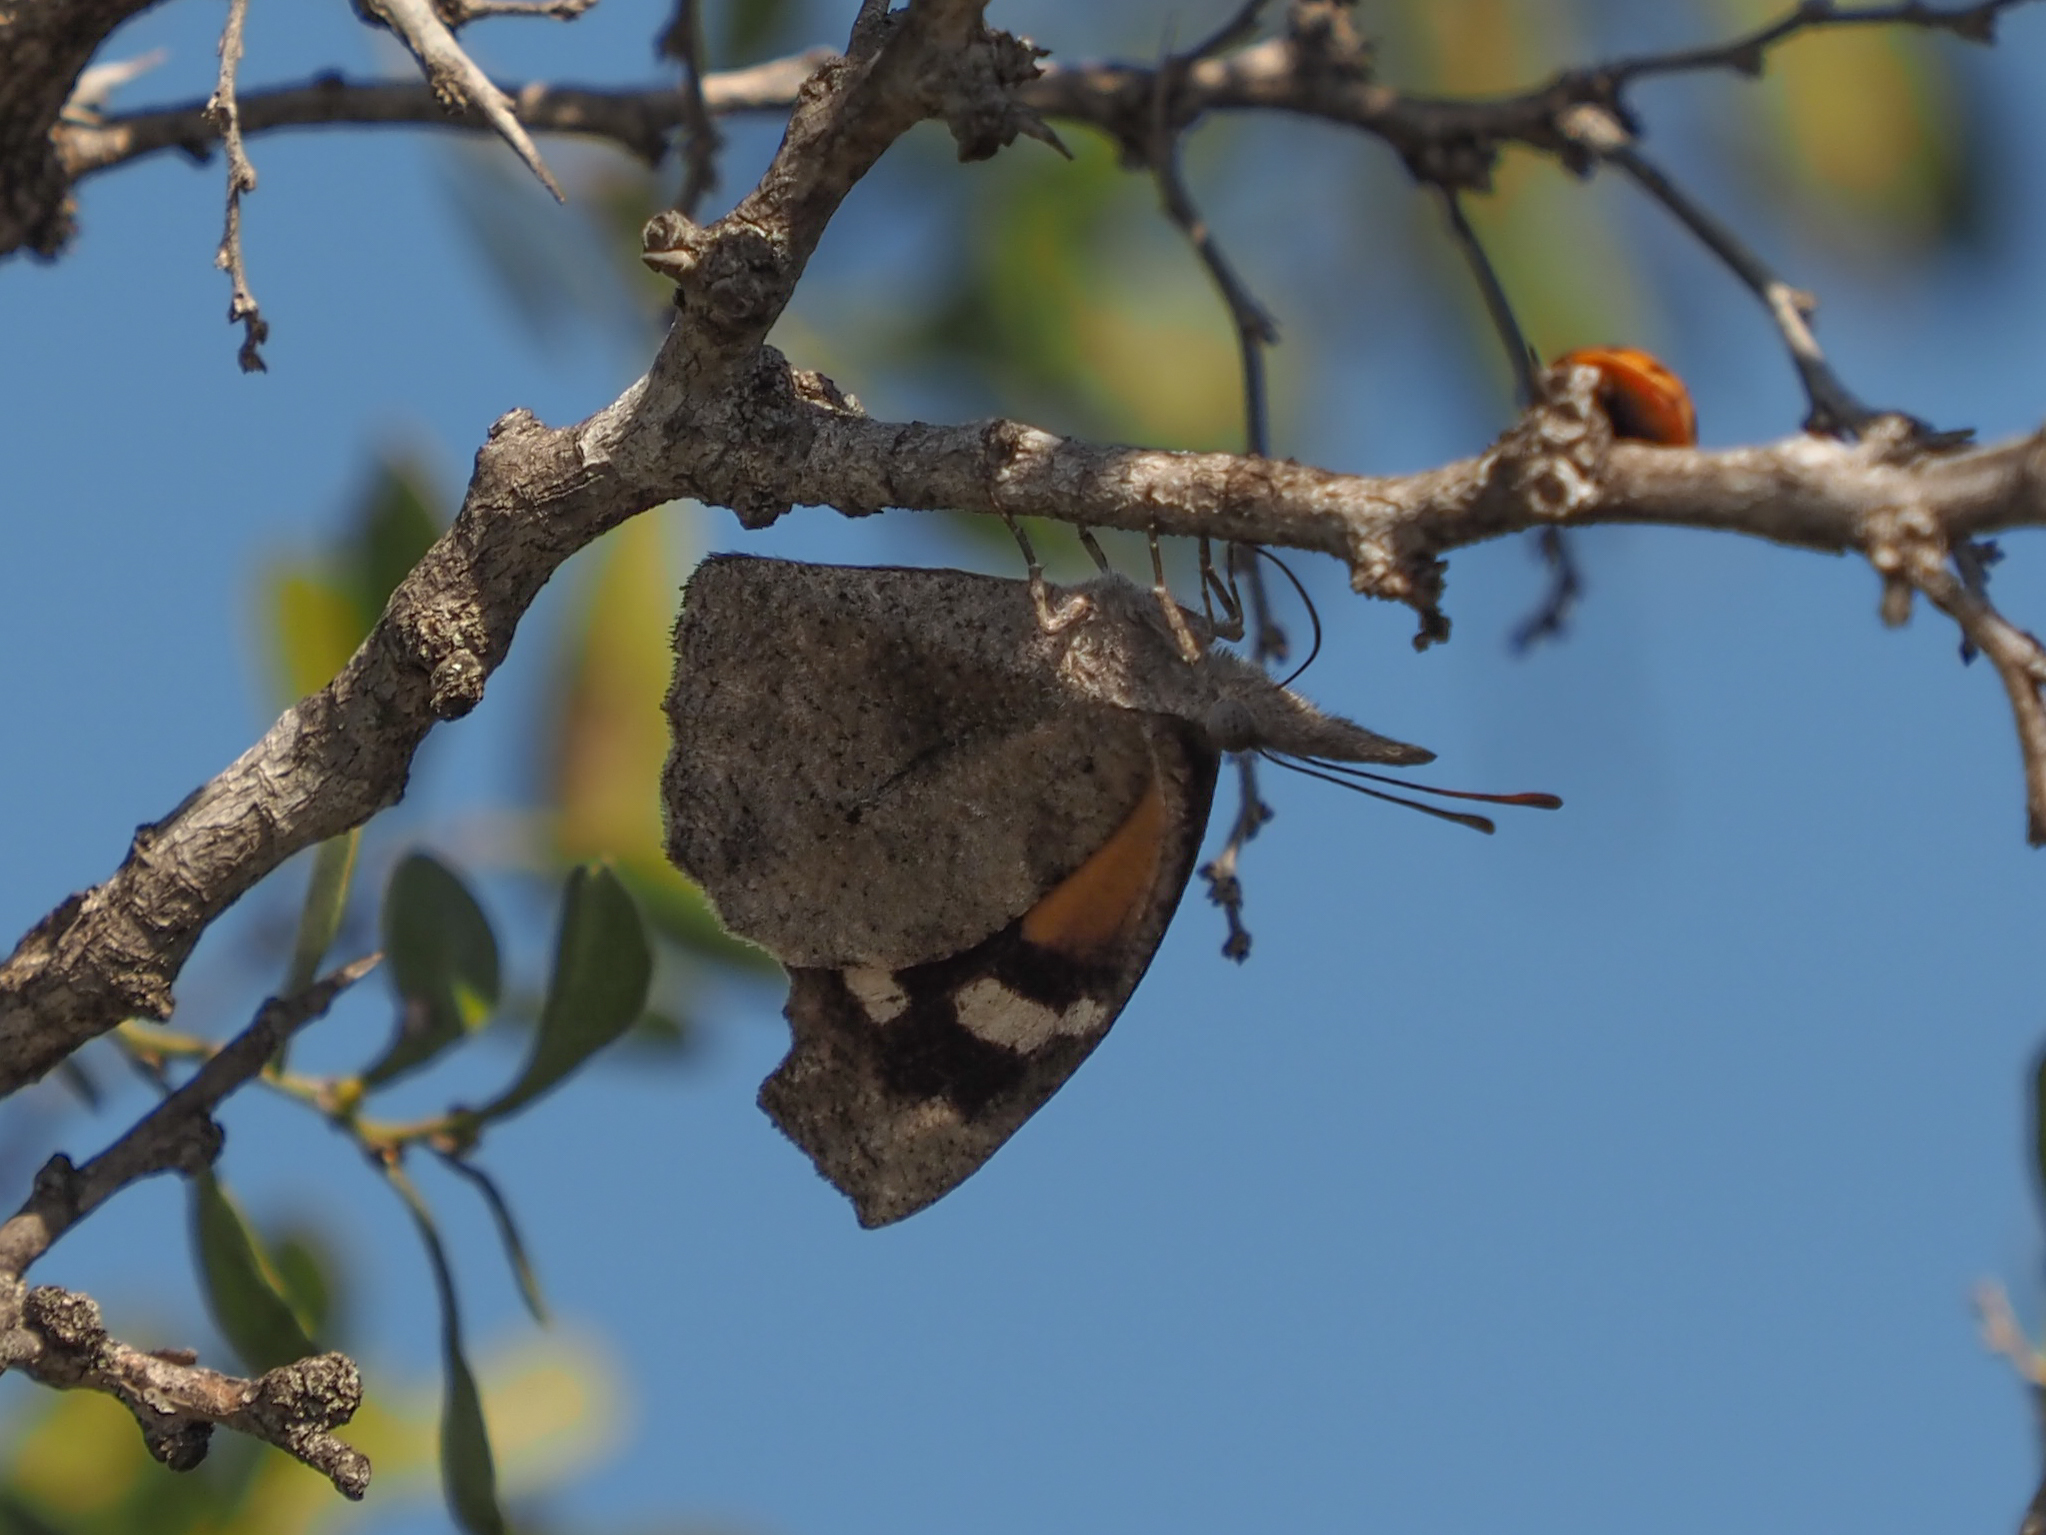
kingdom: Animalia
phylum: Arthropoda
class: Insecta
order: Lepidoptera
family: Nymphalidae
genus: Libytheana
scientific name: Libytheana carinenta
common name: American snout
